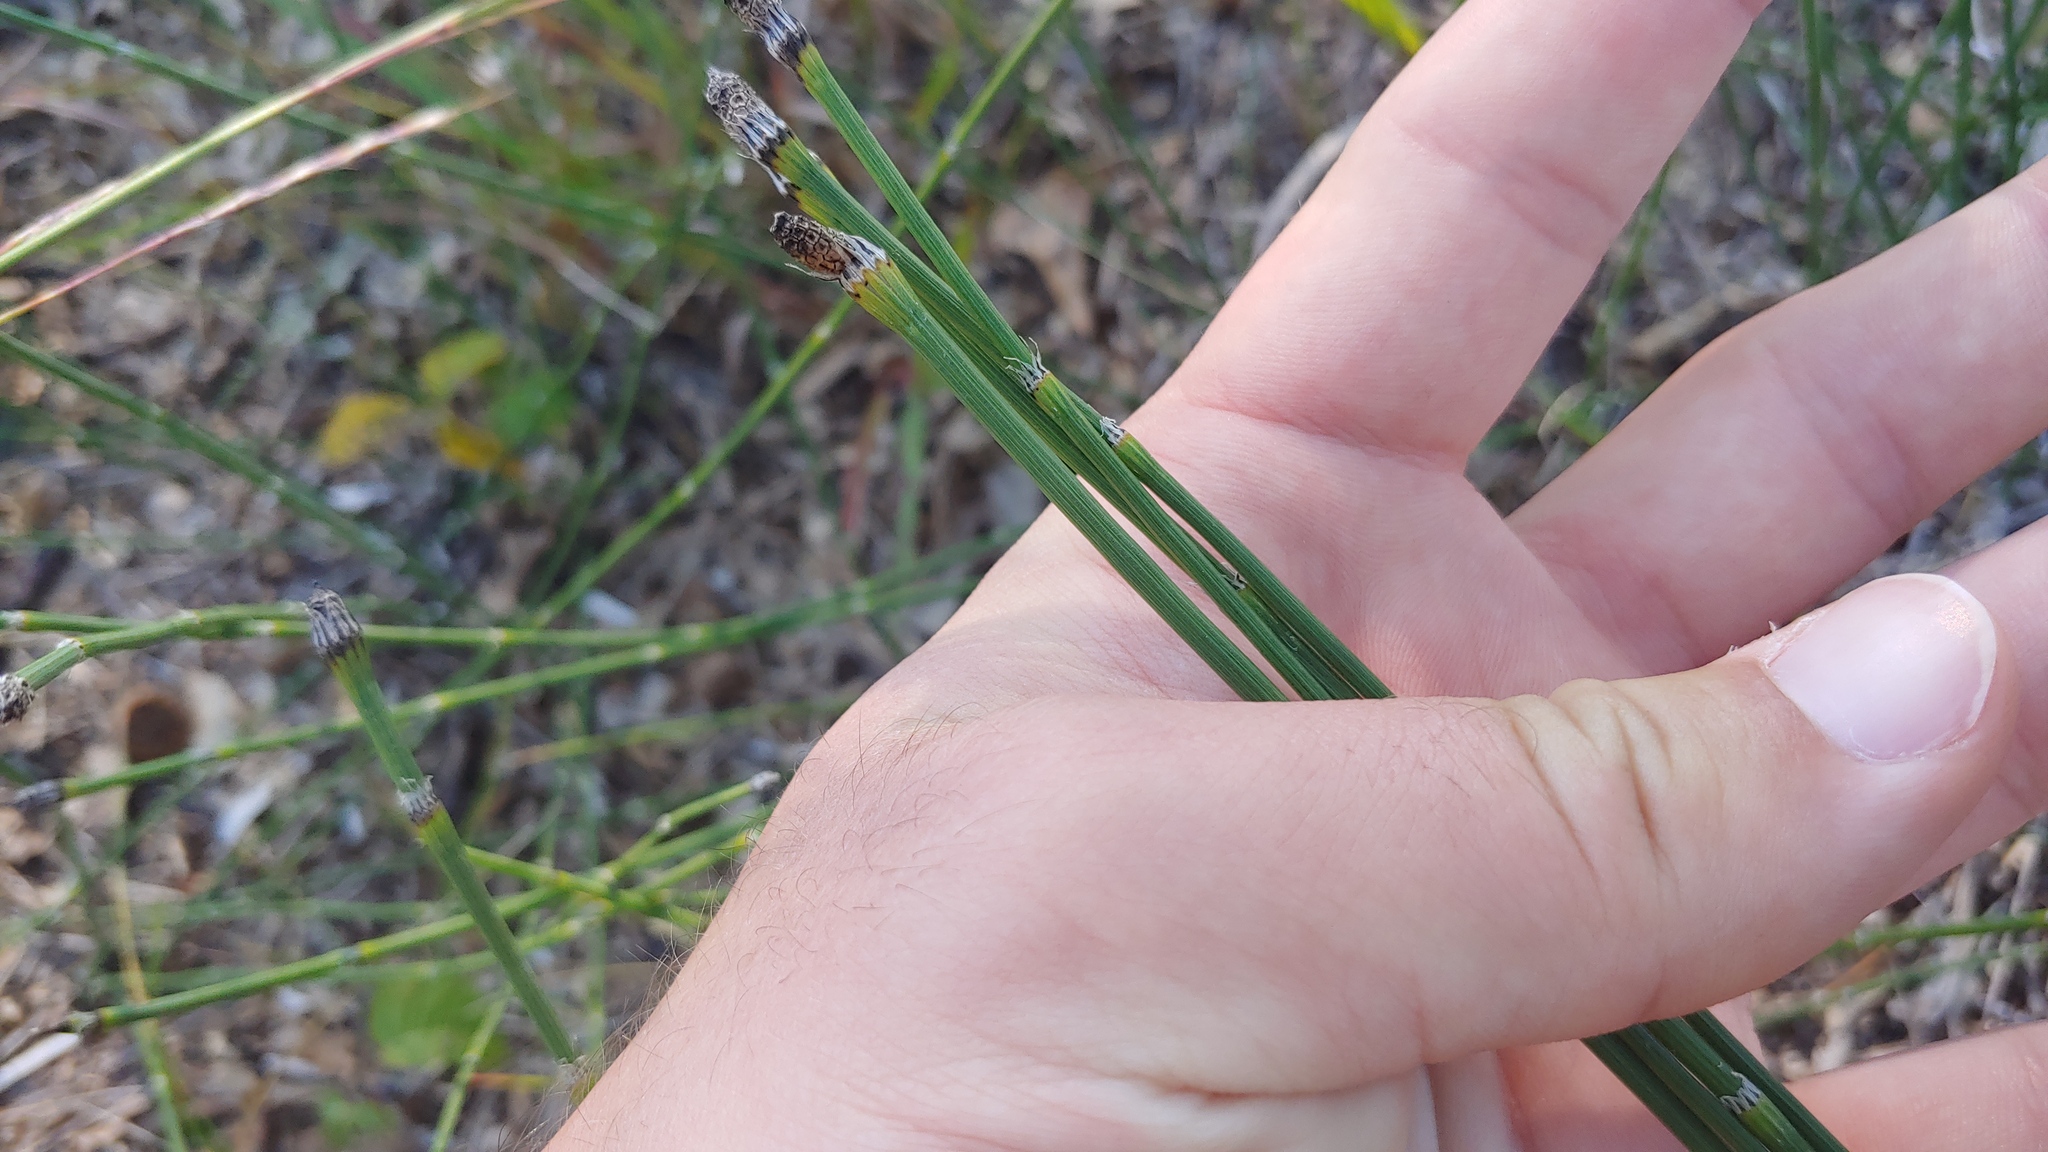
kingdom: Plantae
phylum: Tracheophyta
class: Polypodiopsida
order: Equisetales
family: Equisetaceae
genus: Equisetum
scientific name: Equisetum variegatum
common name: Variegated horsetail
